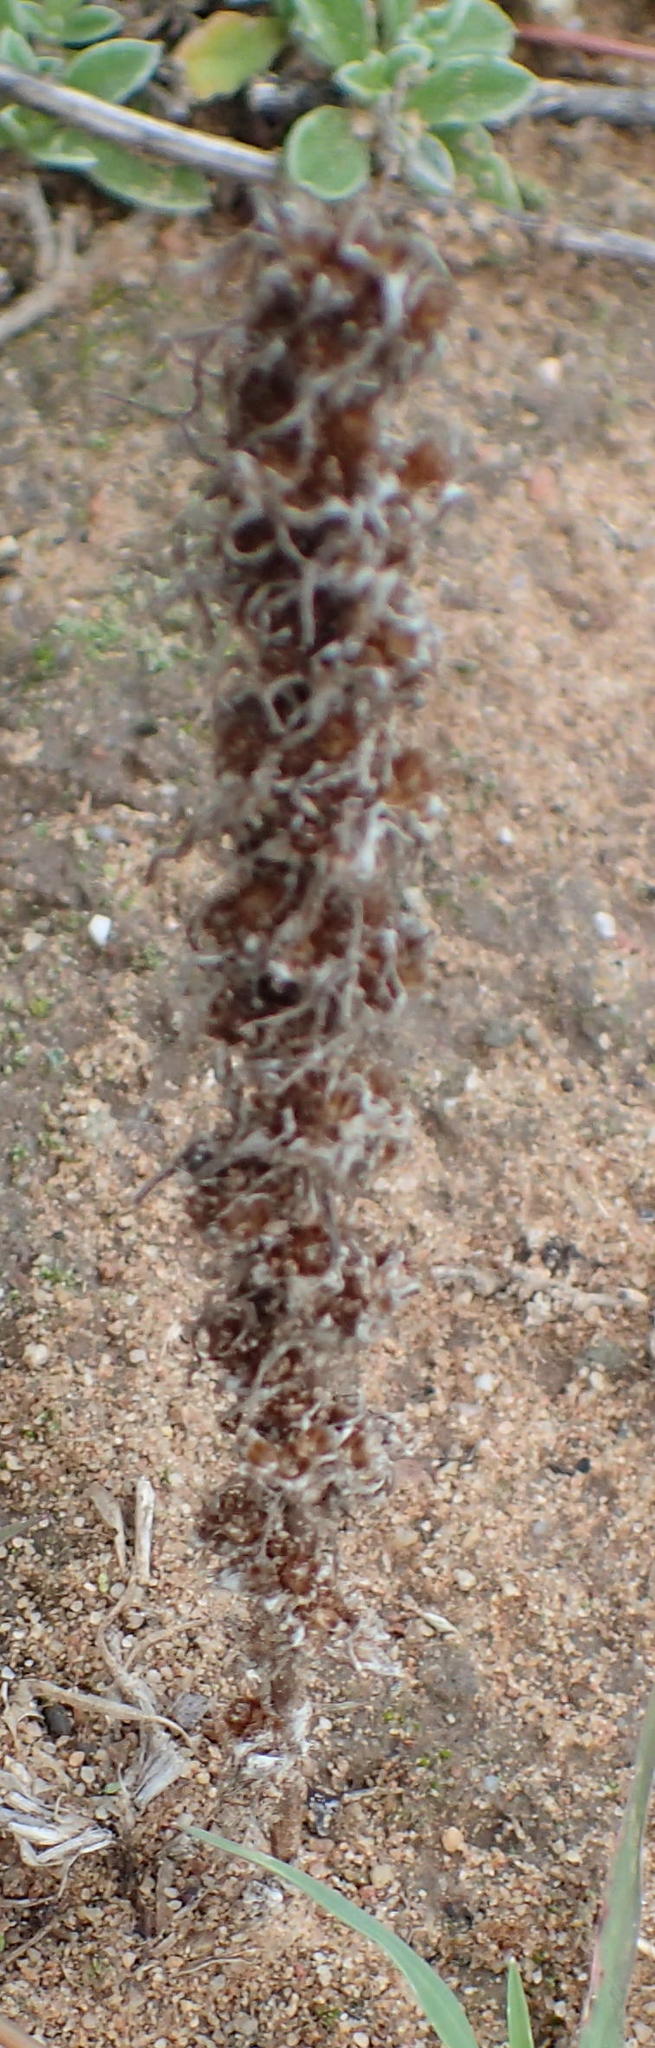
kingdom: Plantae
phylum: Tracheophyta
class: Magnoliopsida
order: Asterales
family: Asteraceae
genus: Ifloga
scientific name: Ifloga glomerata
